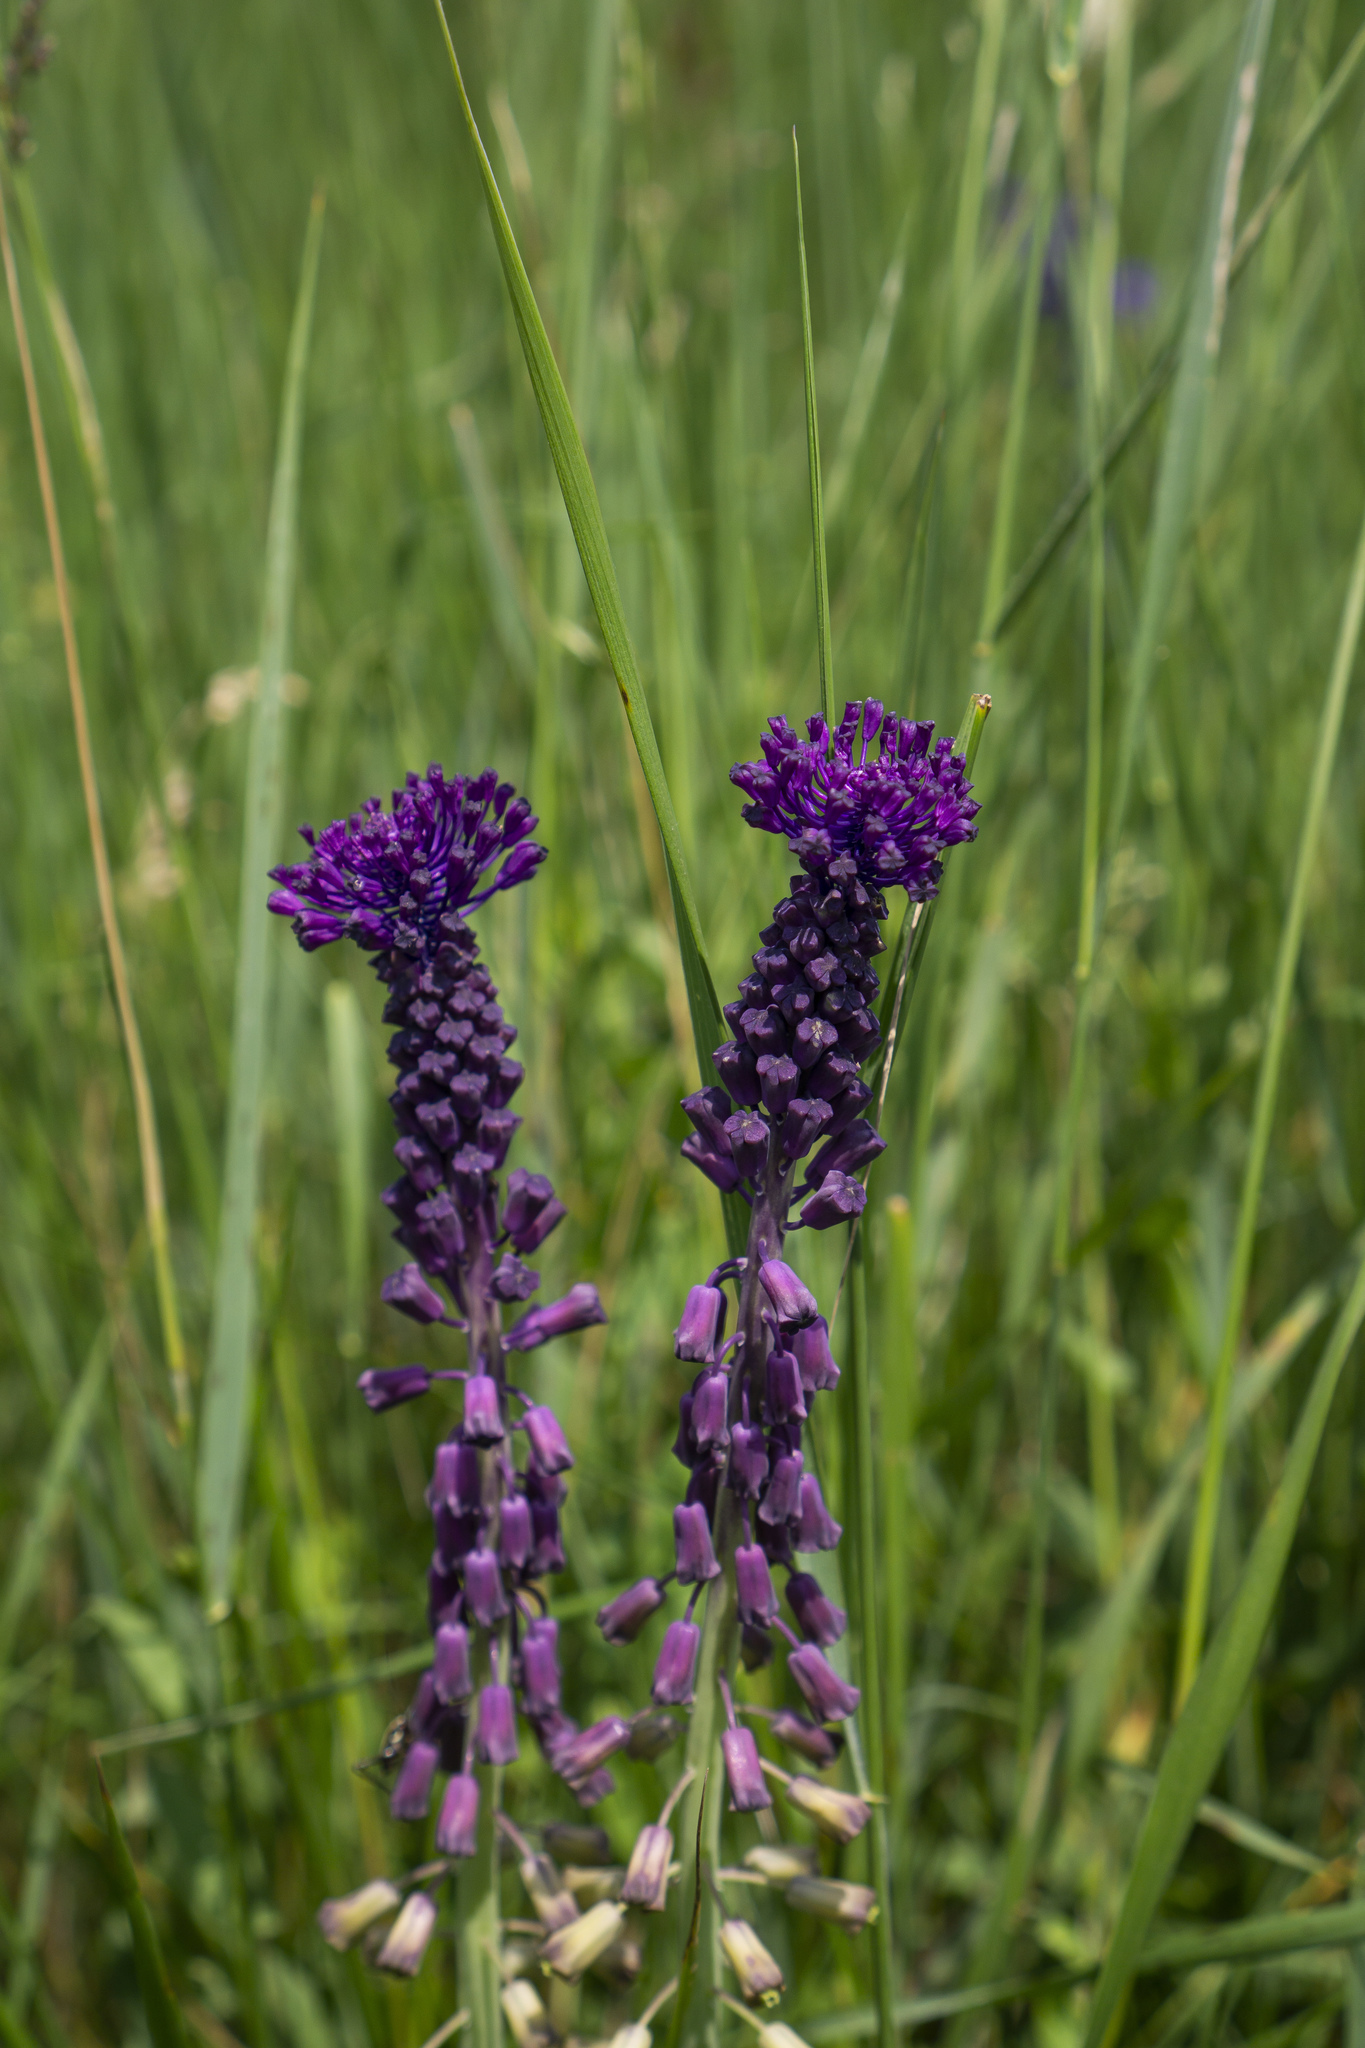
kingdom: Plantae
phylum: Tracheophyta
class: Liliopsida
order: Asparagales
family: Asparagaceae
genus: Muscari
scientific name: Muscari comosum
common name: Tassel hyacinth
